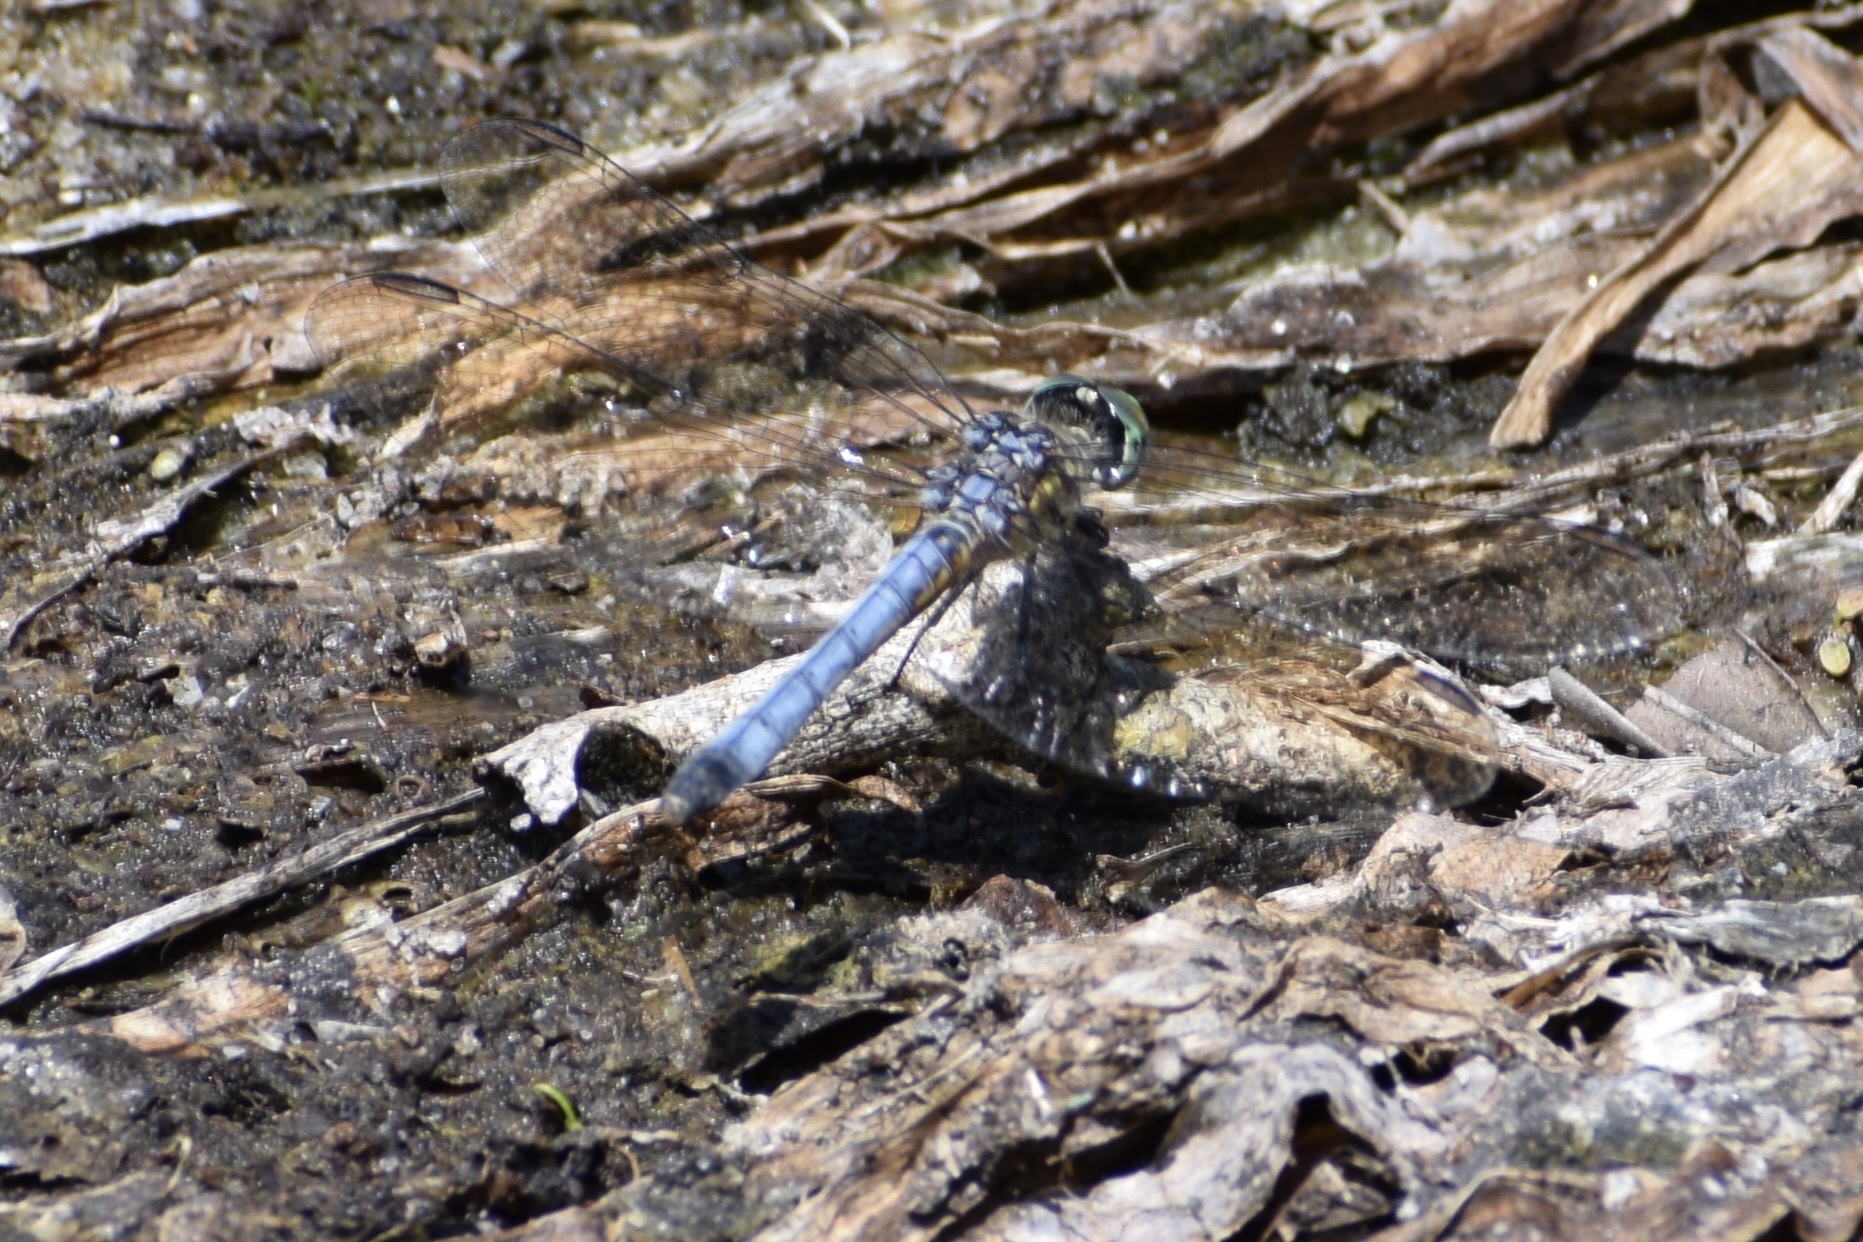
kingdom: Animalia
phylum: Arthropoda
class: Insecta
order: Odonata
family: Libellulidae
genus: Erythemis
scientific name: Erythemis simplicicollis
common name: Eastern pondhawk
